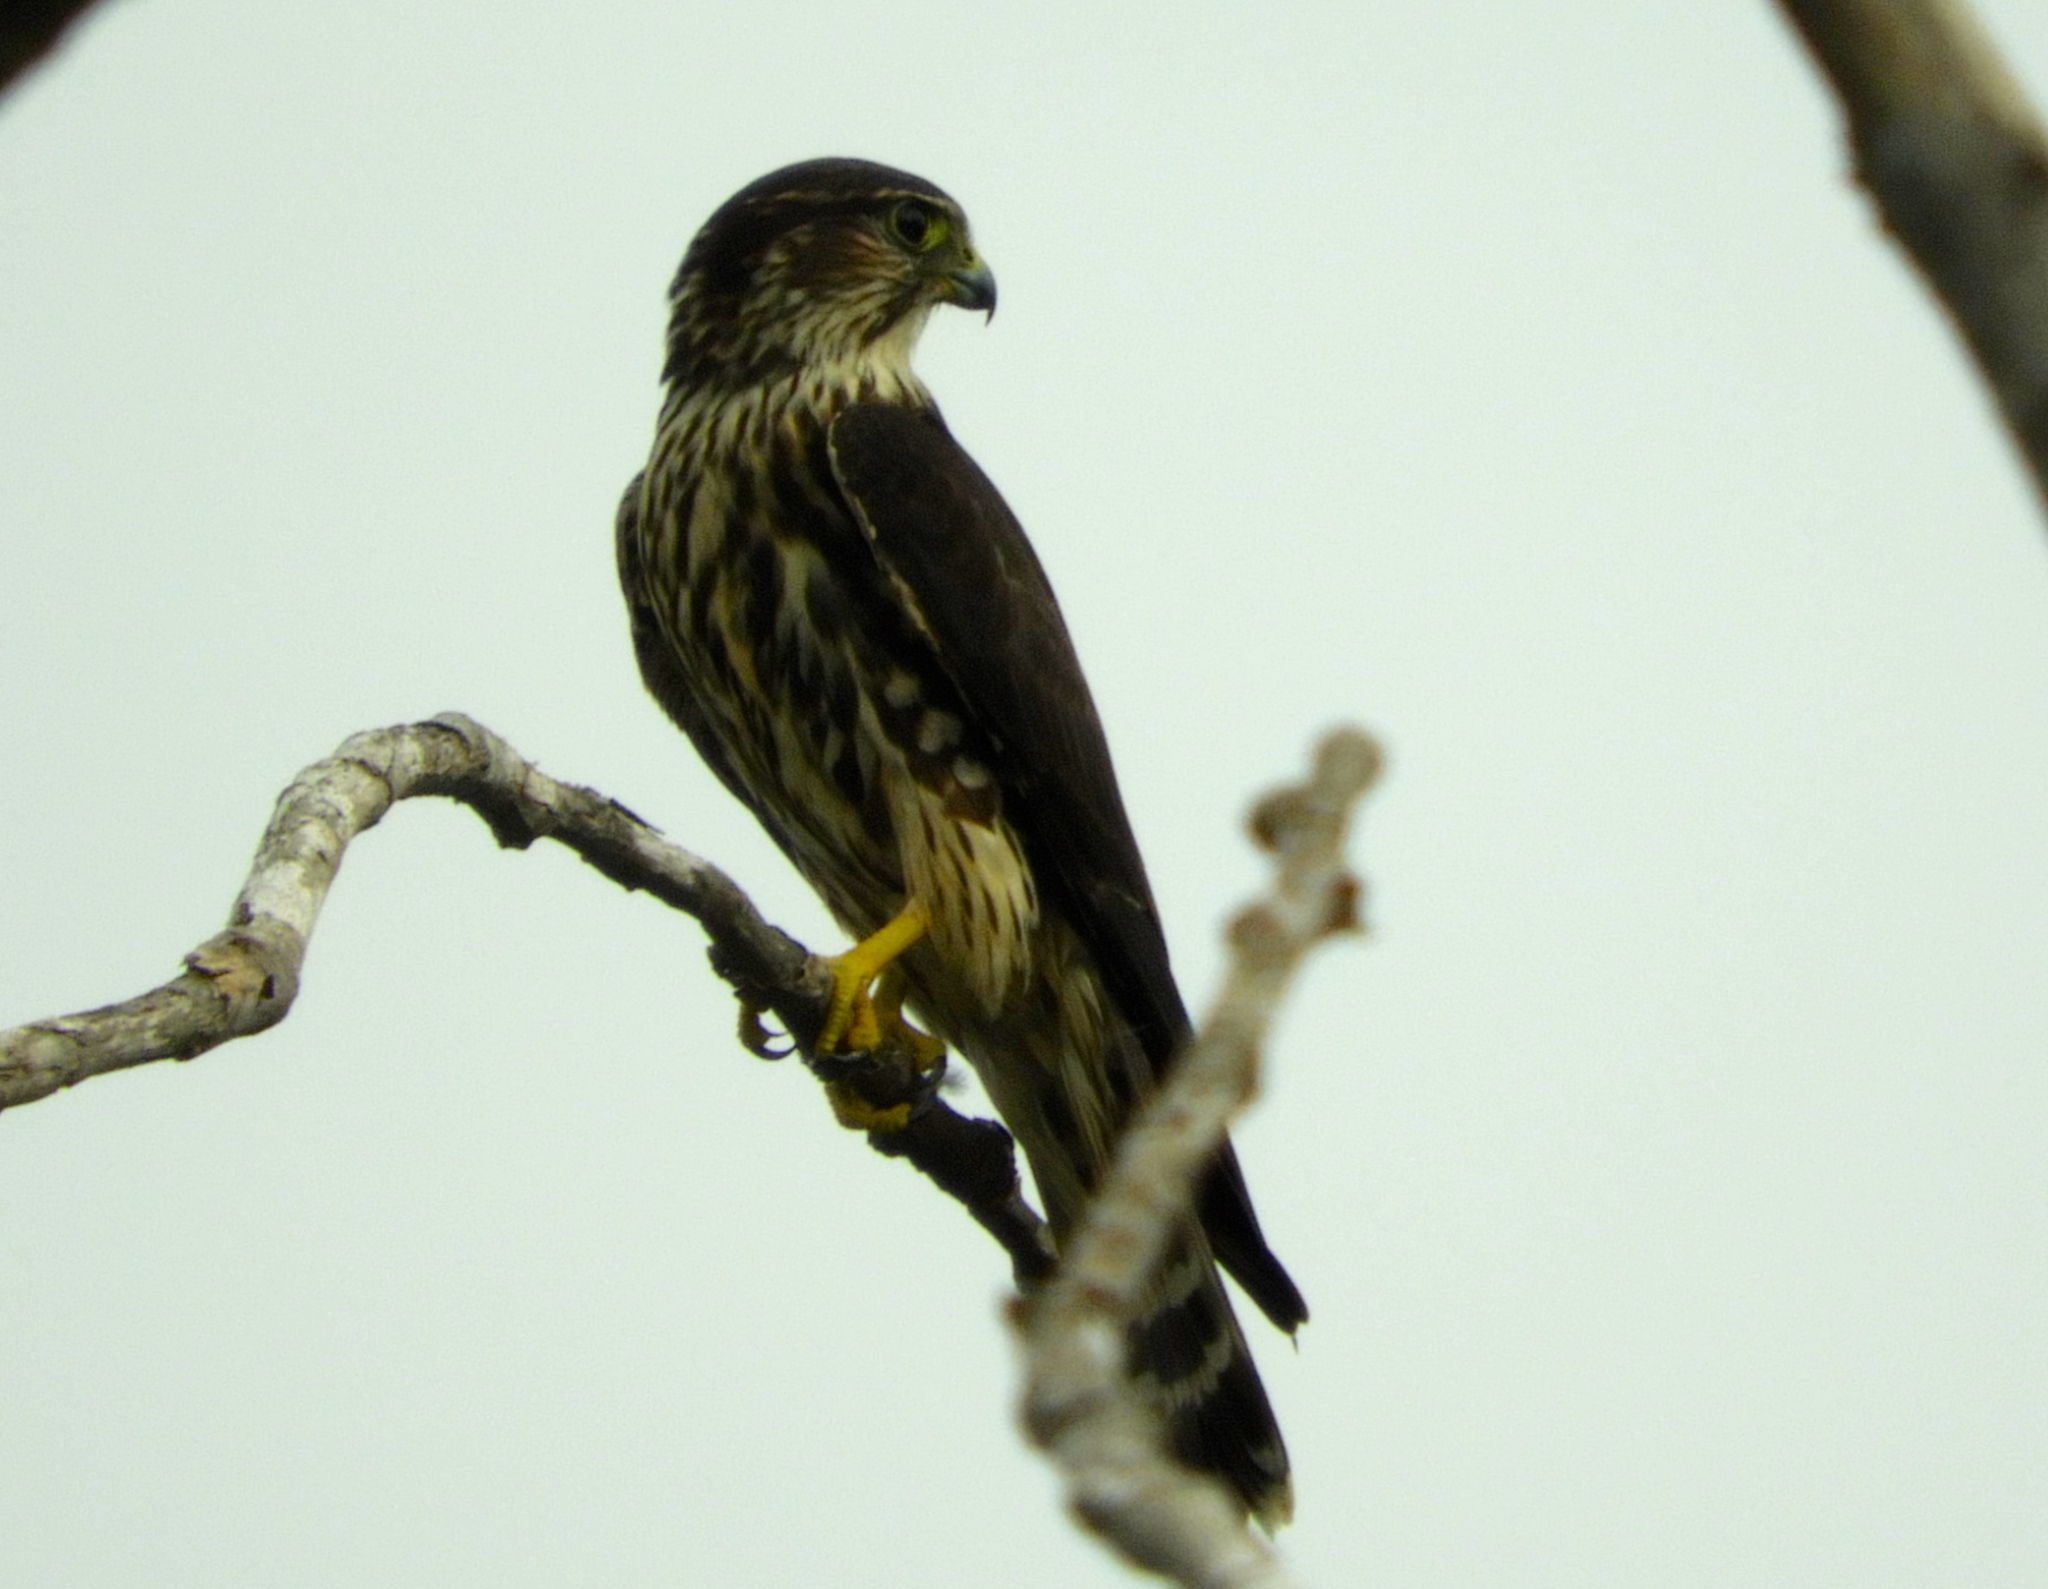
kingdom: Animalia
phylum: Chordata
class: Aves
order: Falconiformes
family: Falconidae
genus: Falco
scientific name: Falco columbarius
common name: Merlin
